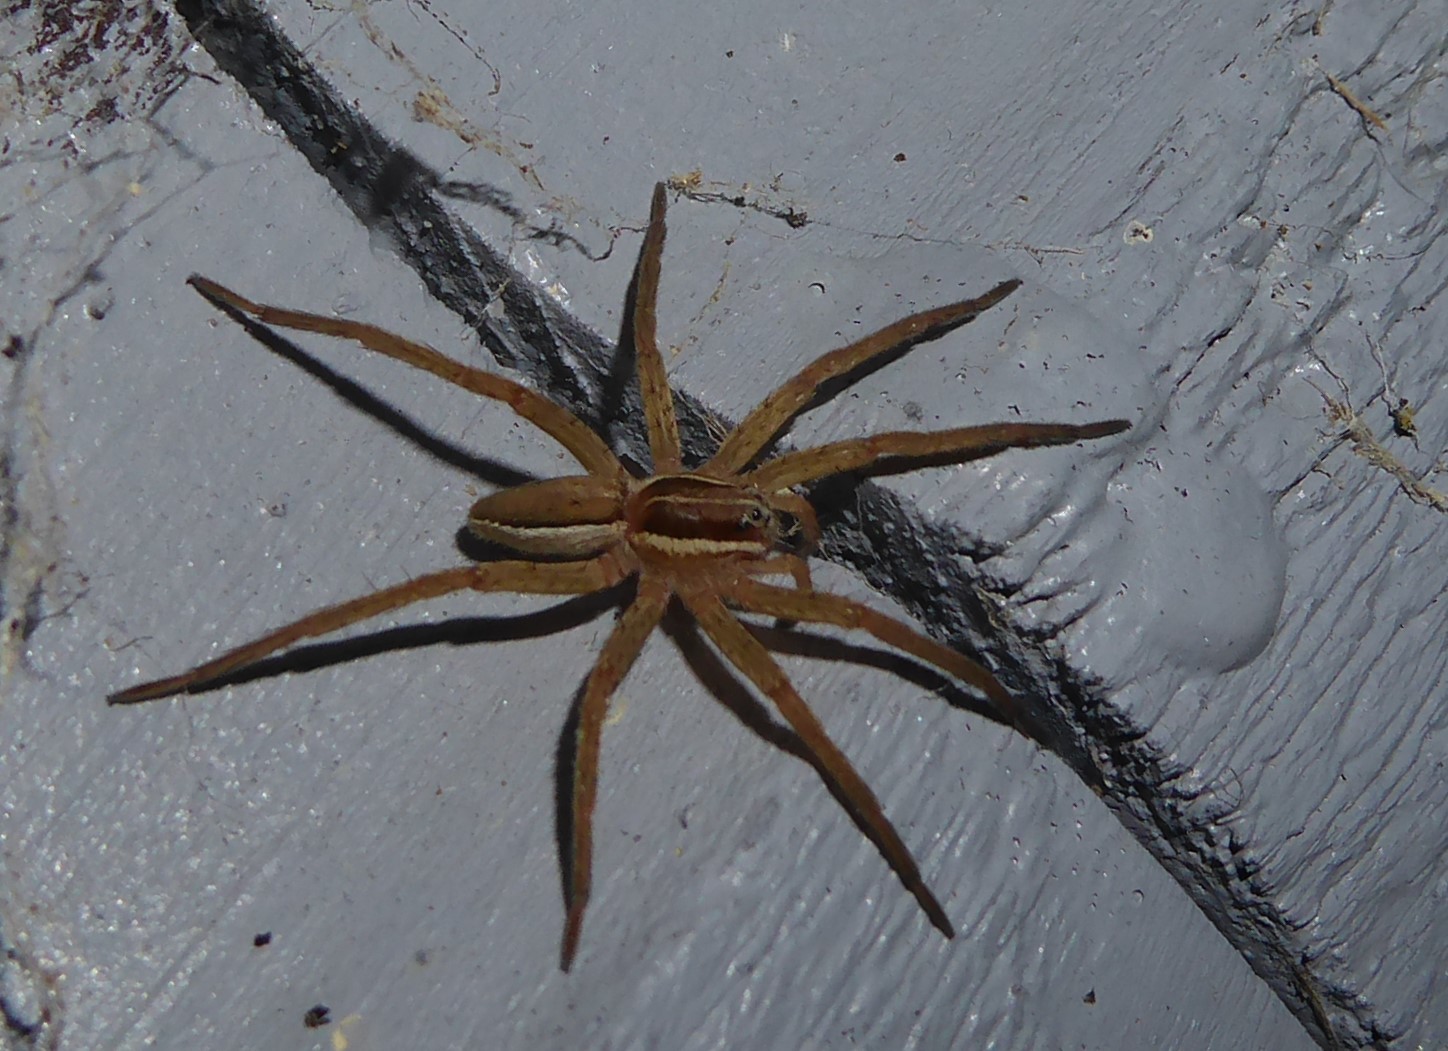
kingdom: Animalia
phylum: Arthropoda
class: Arachnida
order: Araneae
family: Pisauridae
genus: Dolomedes
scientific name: Dolomedes minor
